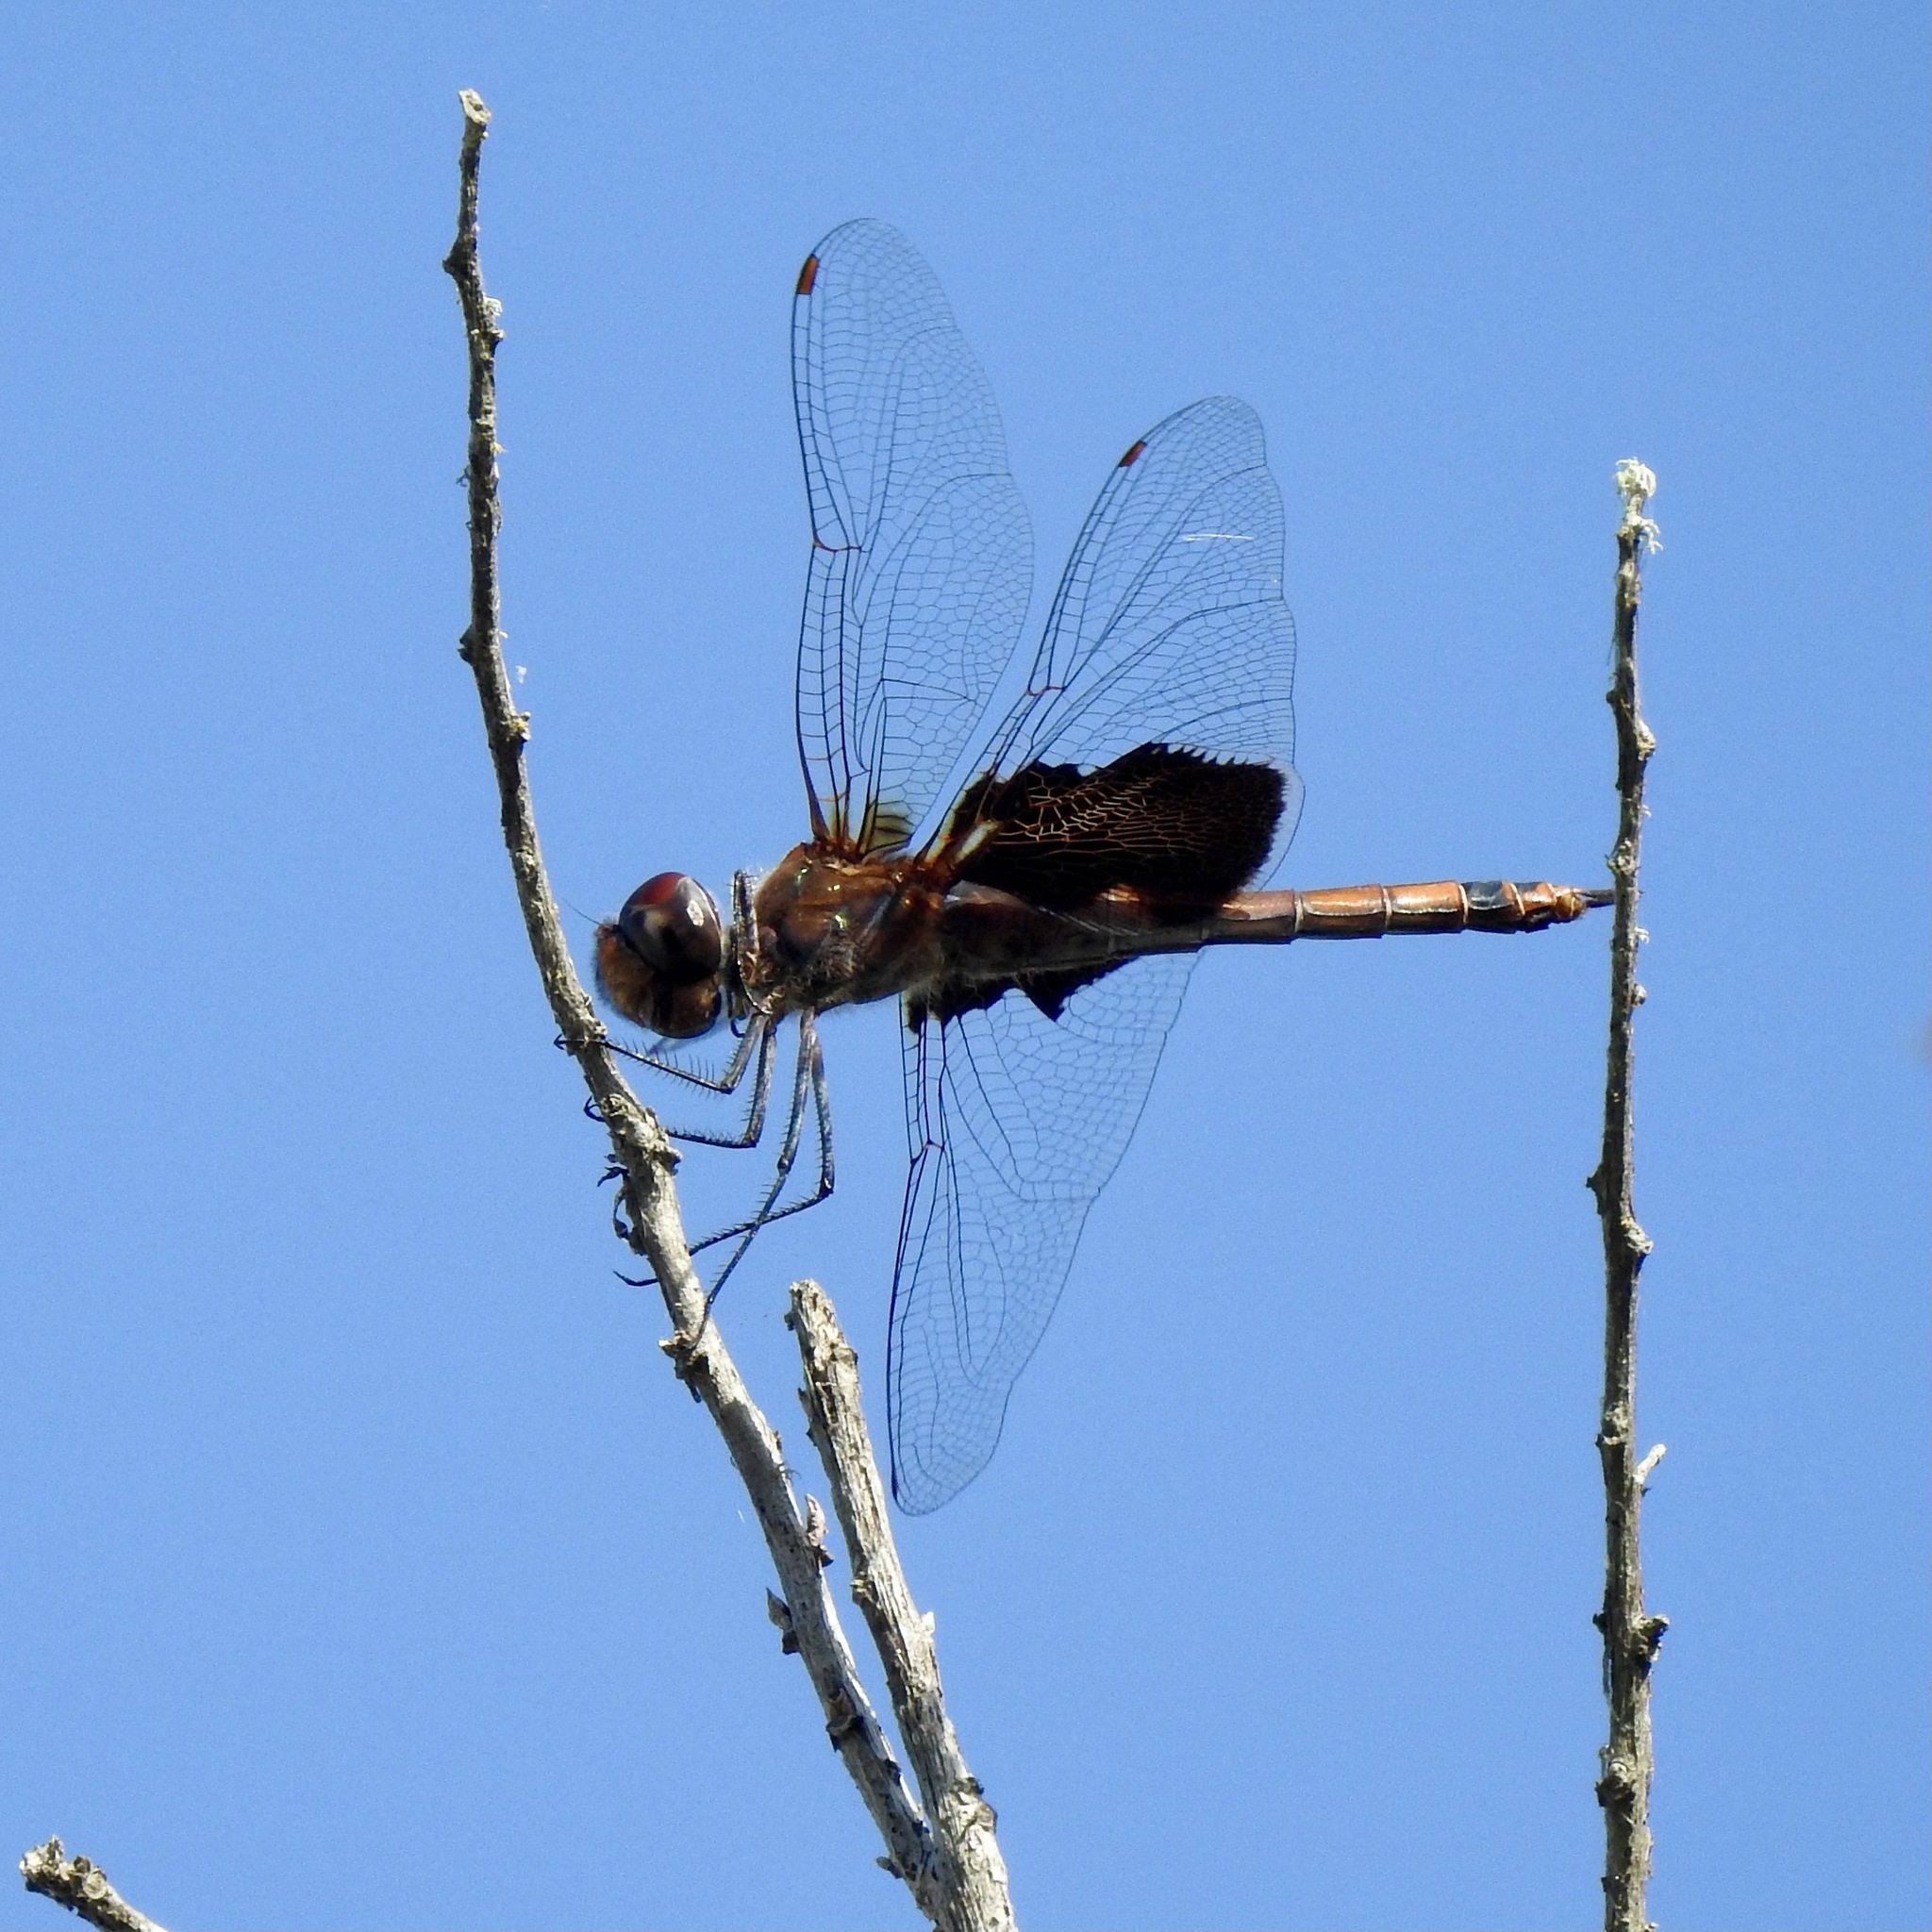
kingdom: Animalia
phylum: Arthropoda
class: Insecta
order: Odonata
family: Libellulidae
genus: Tramea
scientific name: Tramea carolina
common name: Carolina saddlebags
